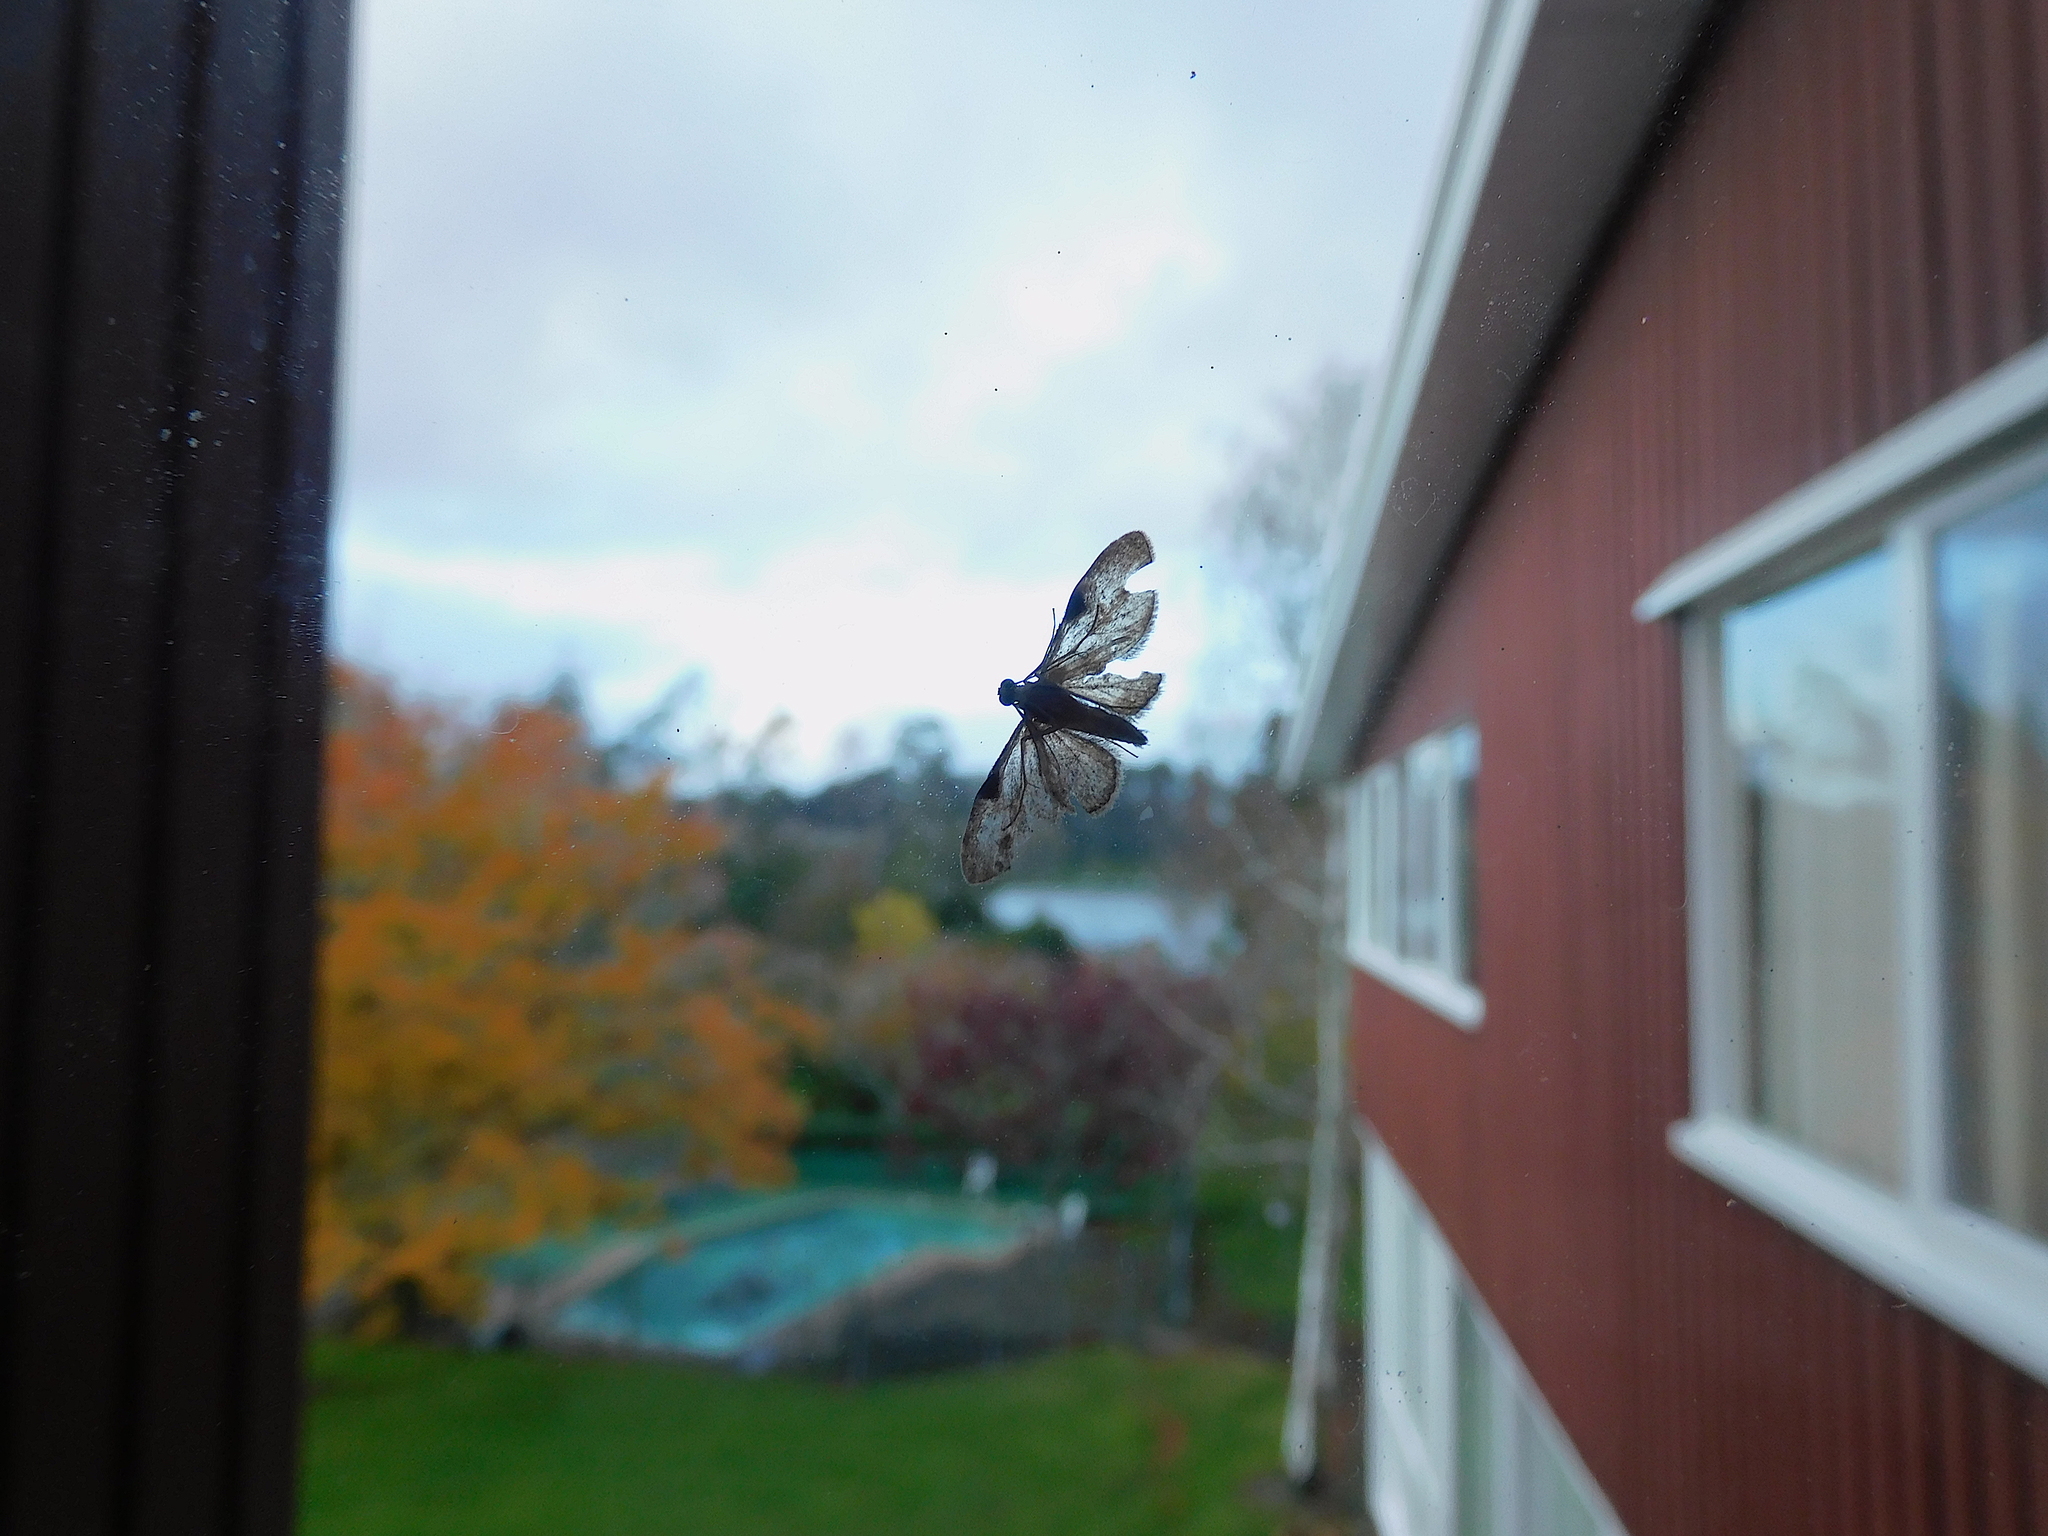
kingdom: Animalia
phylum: Arthropoda
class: Insecta
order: Lepidoptera
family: Geometridae
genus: Chloroclystis
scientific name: Chloroclystis insigillata
